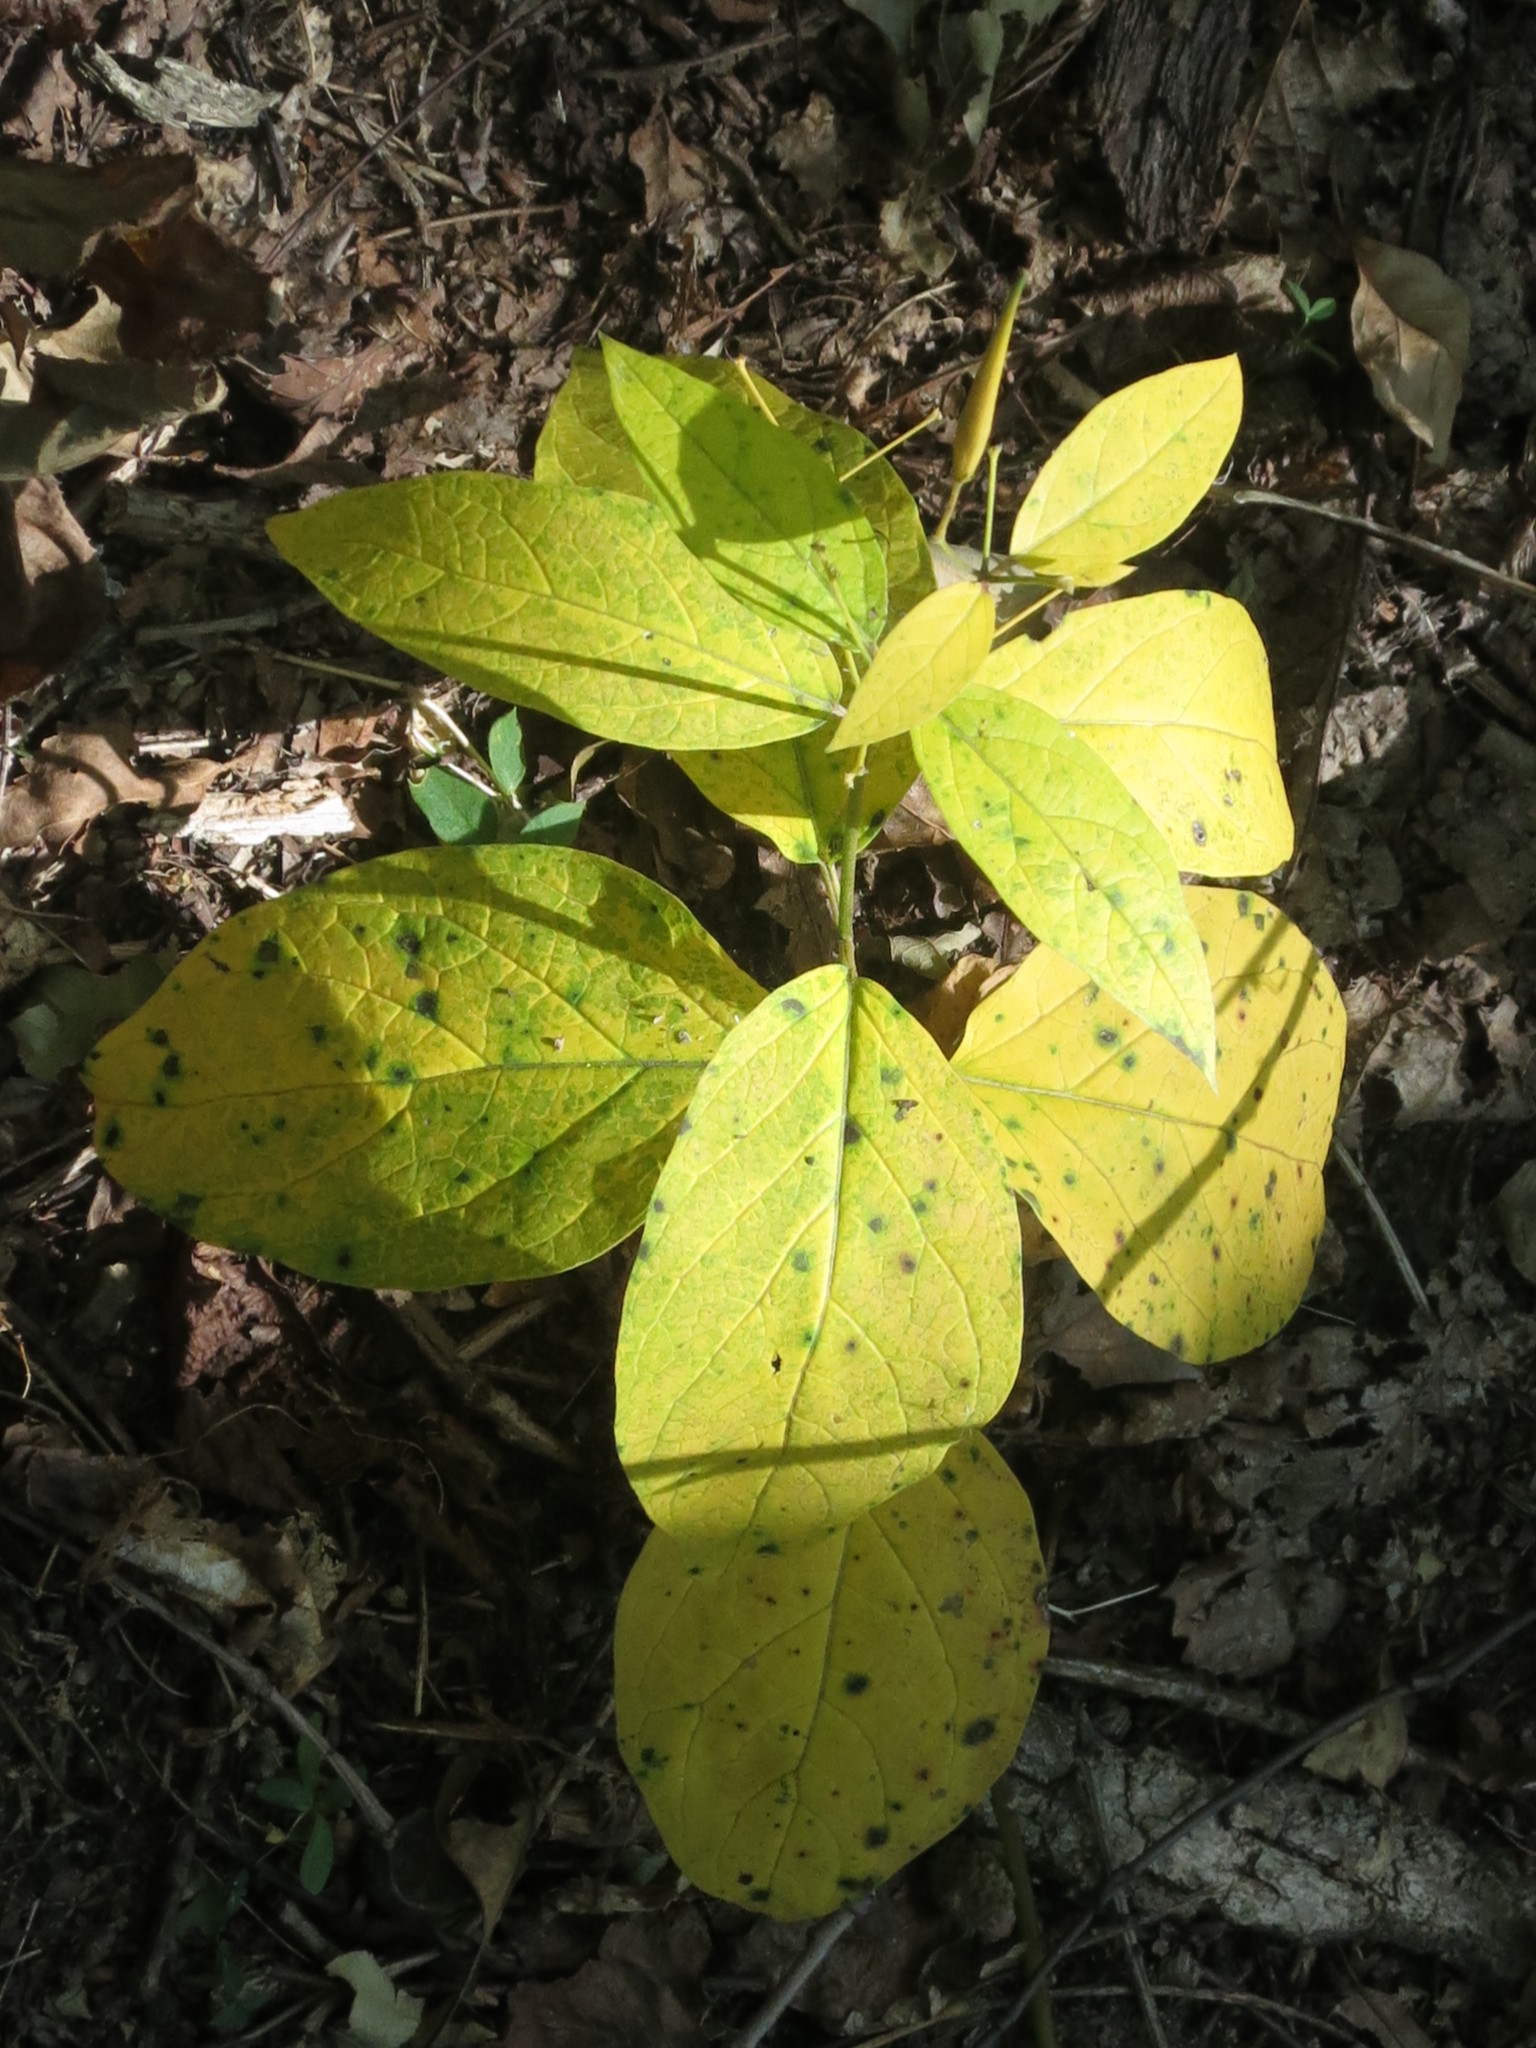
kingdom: Plantae
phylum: Tracheophyta
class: Magnoliopsida
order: Gentianales
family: Apocynaceae
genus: Vincetoxicum
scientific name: Vincetoxicum ascyrifolium
